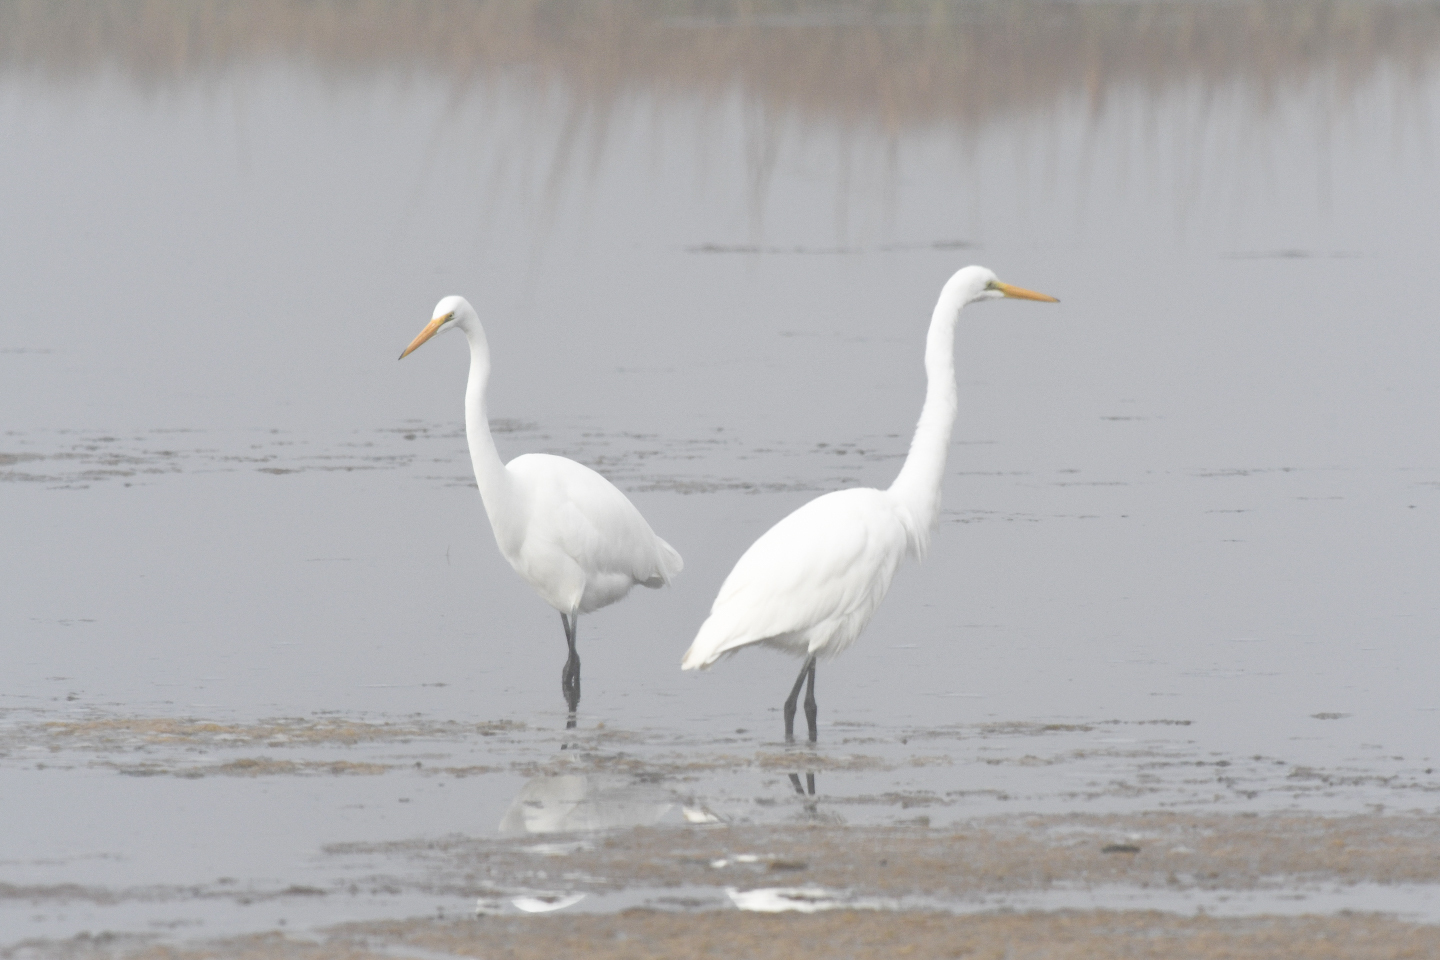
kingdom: Animalia
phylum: Chordata
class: Aves
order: Pelecaniformes
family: Ardeidae
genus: Ardea
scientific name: Ardea alba
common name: Great egret
